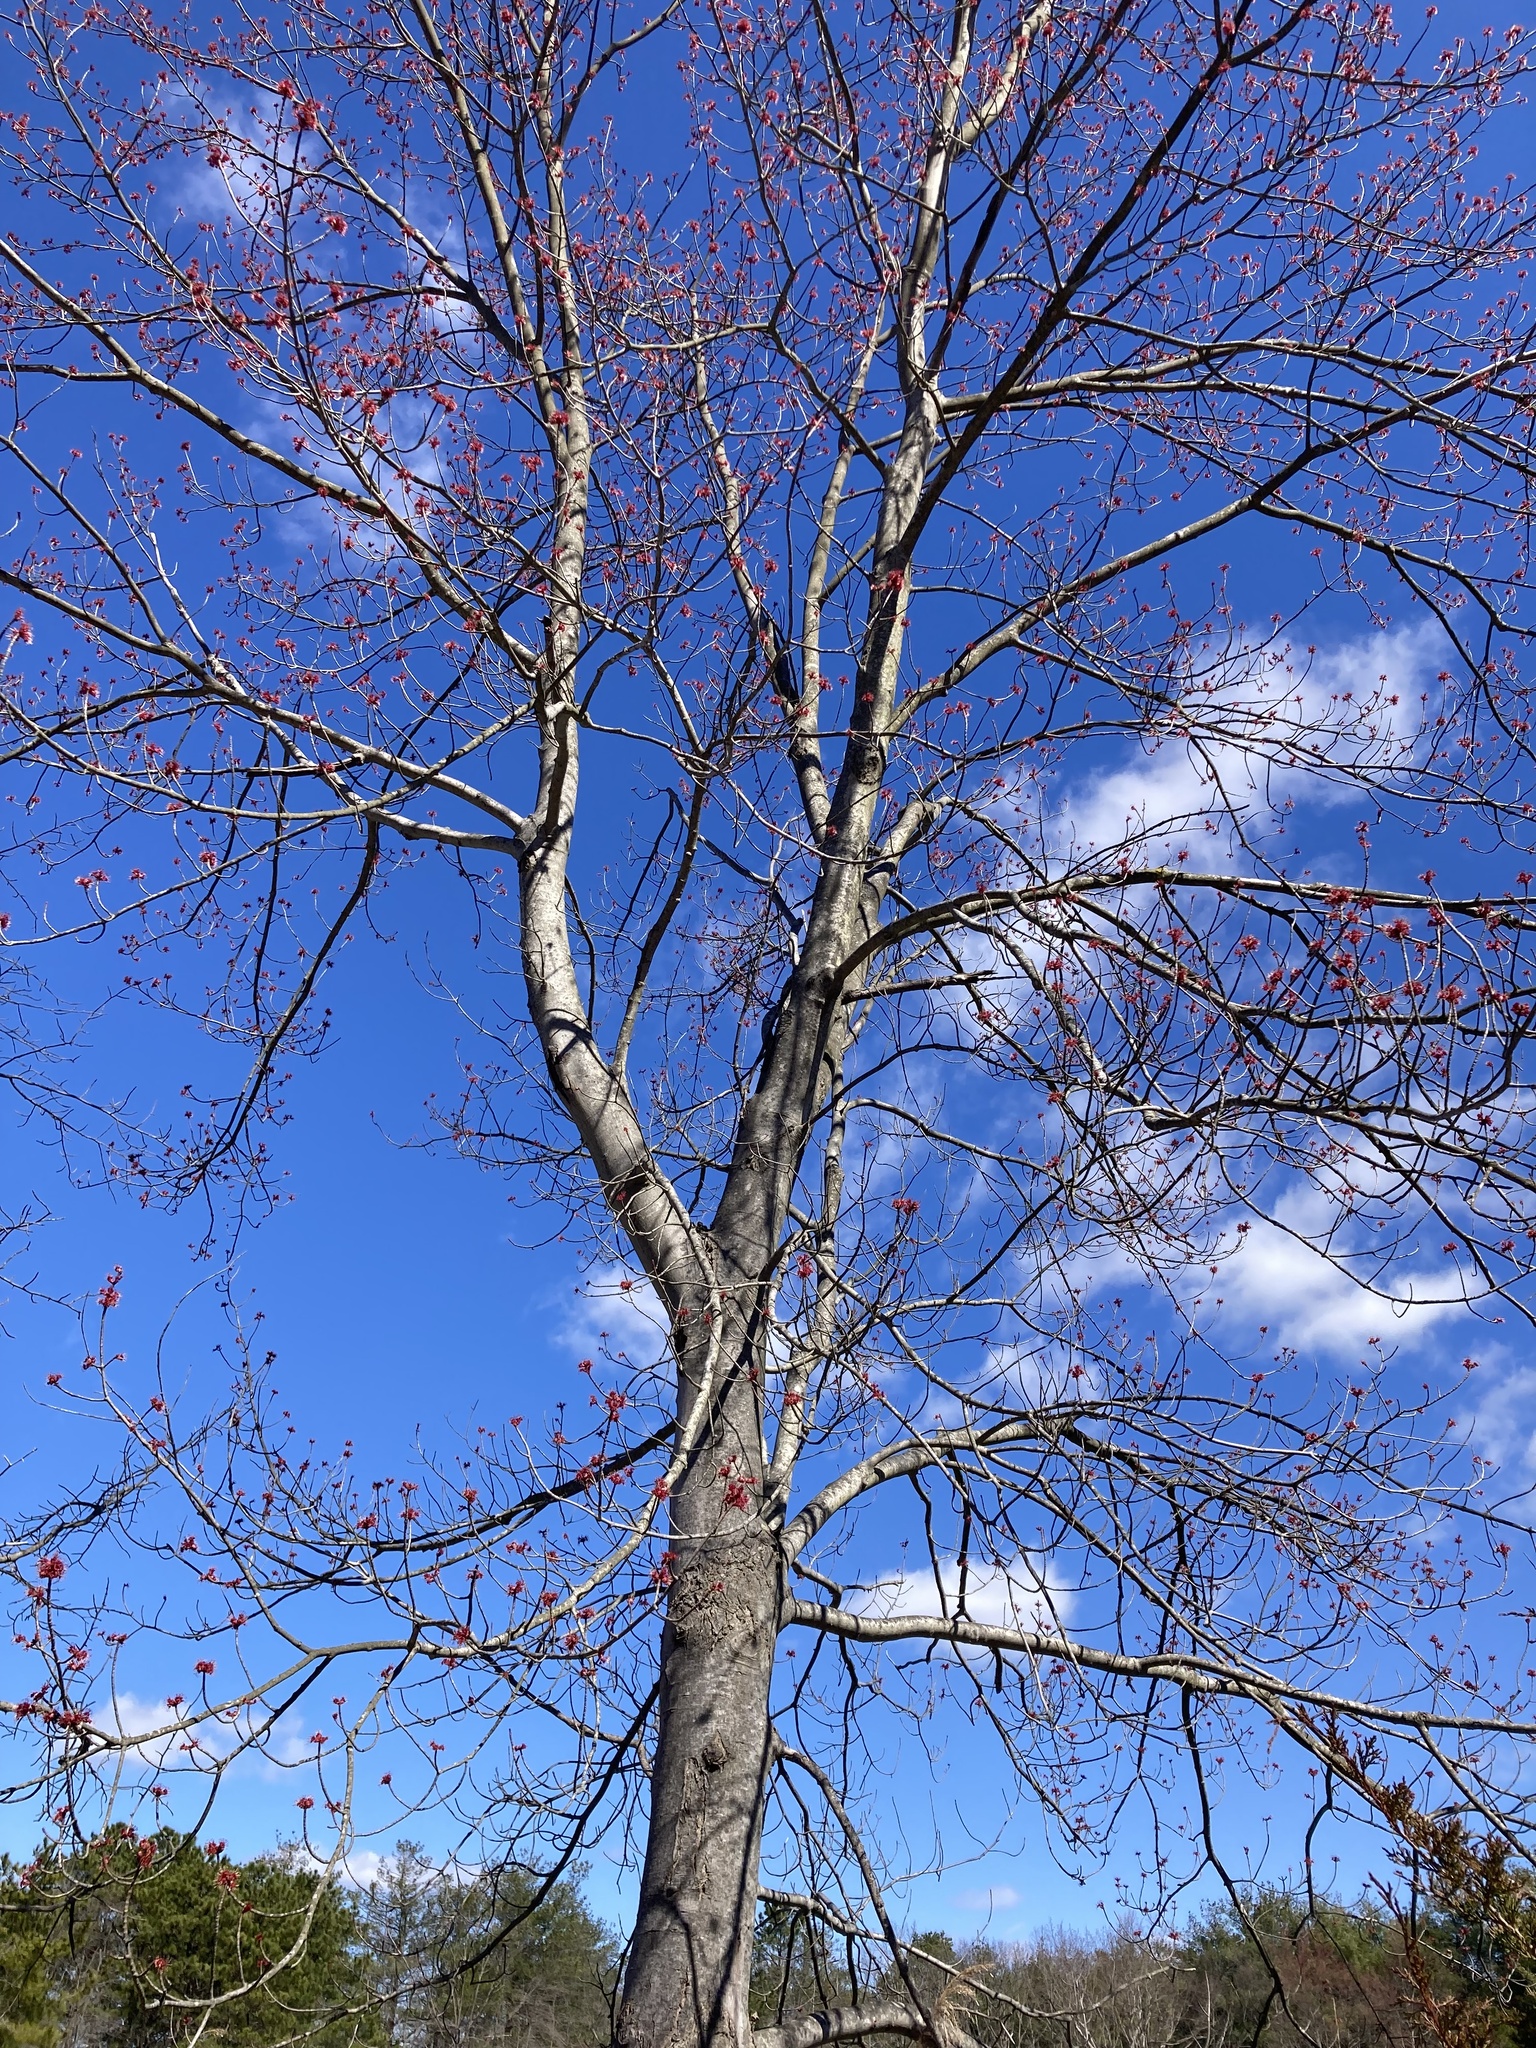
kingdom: Plantae
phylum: Tracheophyta
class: Magnoliopsida
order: Sapindales
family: Sapindaceae
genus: Acer
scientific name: Acer rubrum
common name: Red maple
